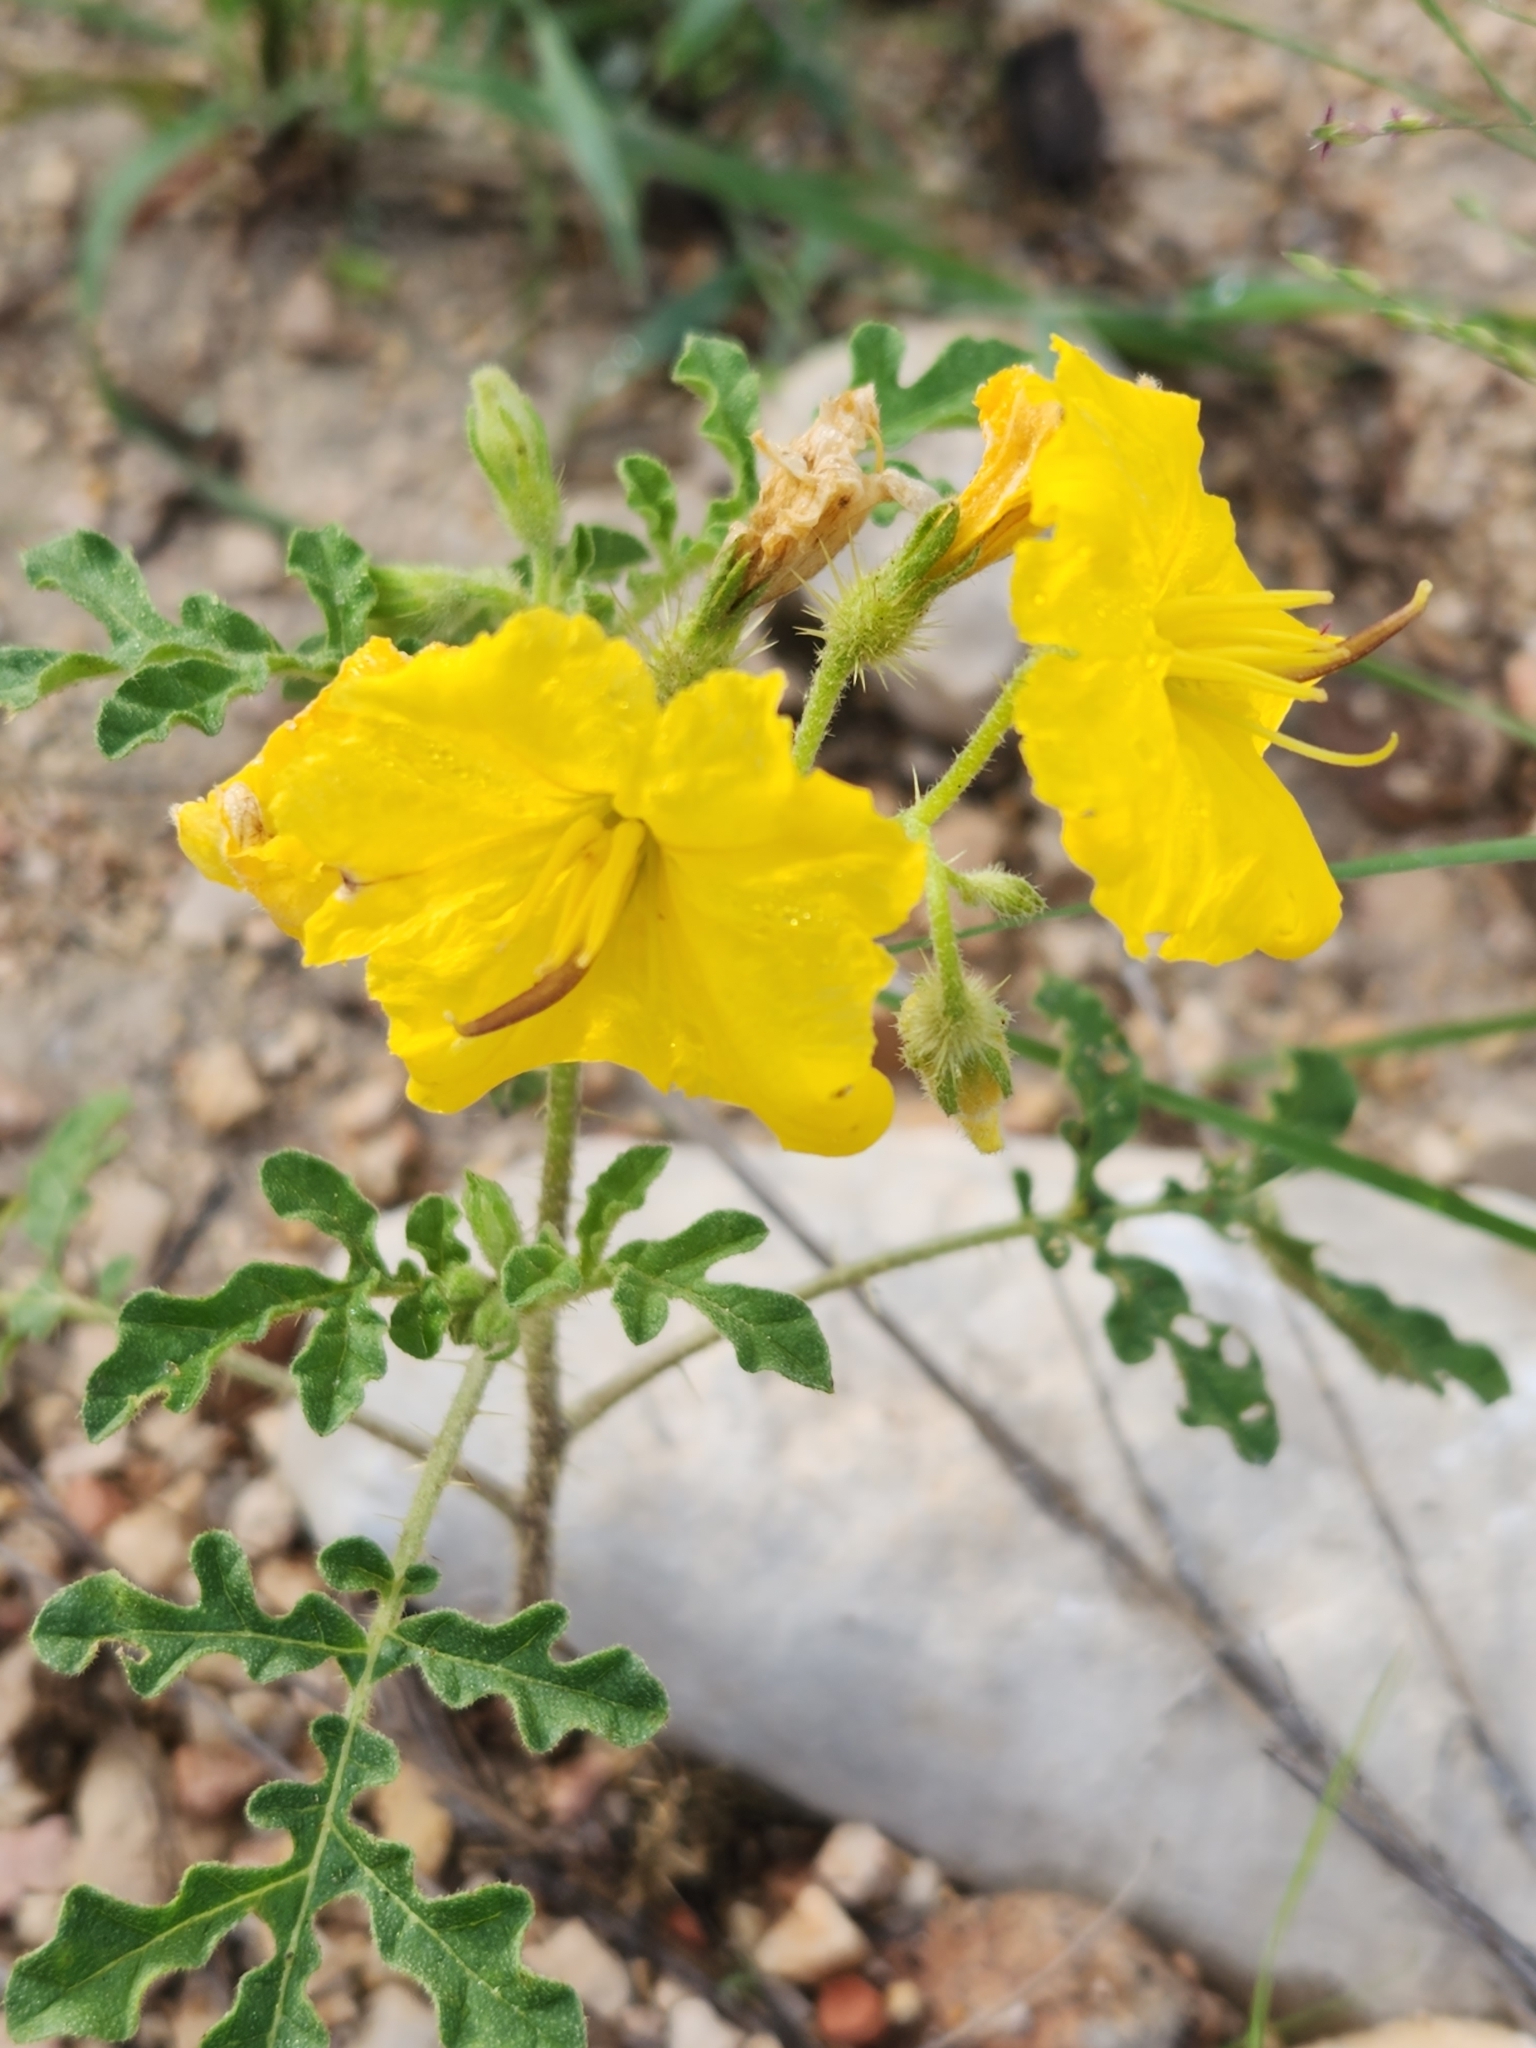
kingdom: Plantae
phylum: Tracheophyta
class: Magnoliopsida
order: Solanales
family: Solanaceae
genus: Solanum
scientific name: Solanum angustifolium
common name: Buffalobur nightshade
